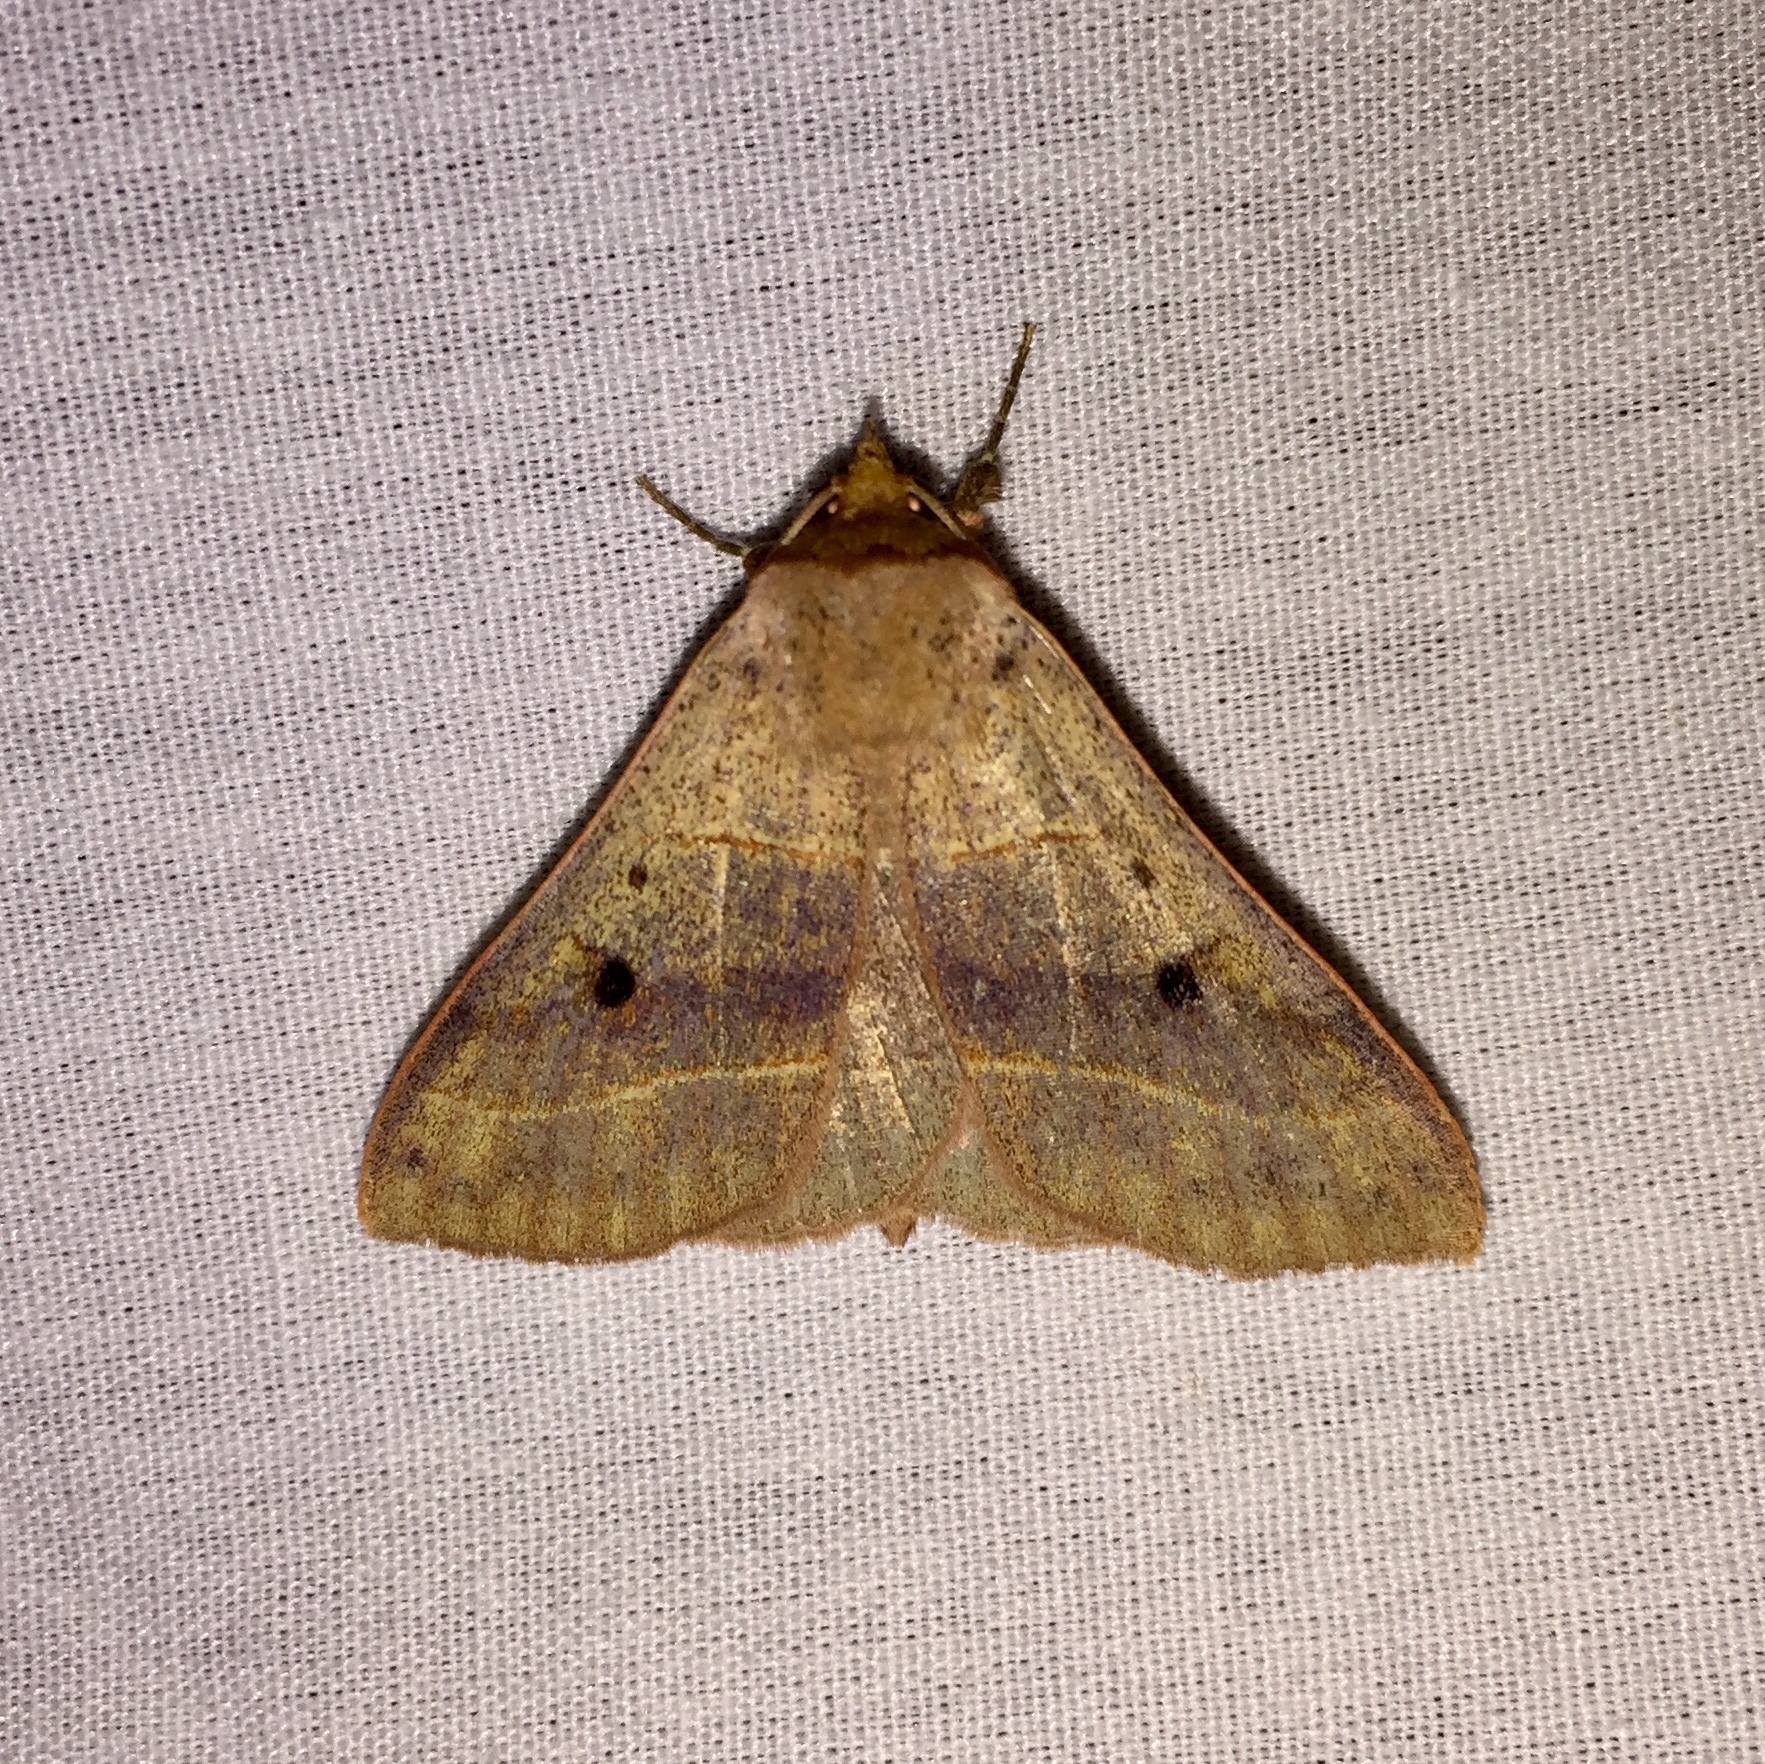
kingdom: Animalia
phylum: Arthropoda
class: Insecta
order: Lepidoptera
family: Erebidae
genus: Panopoda
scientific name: Panopoda rufimargo
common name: Red-lined panopoda moth
